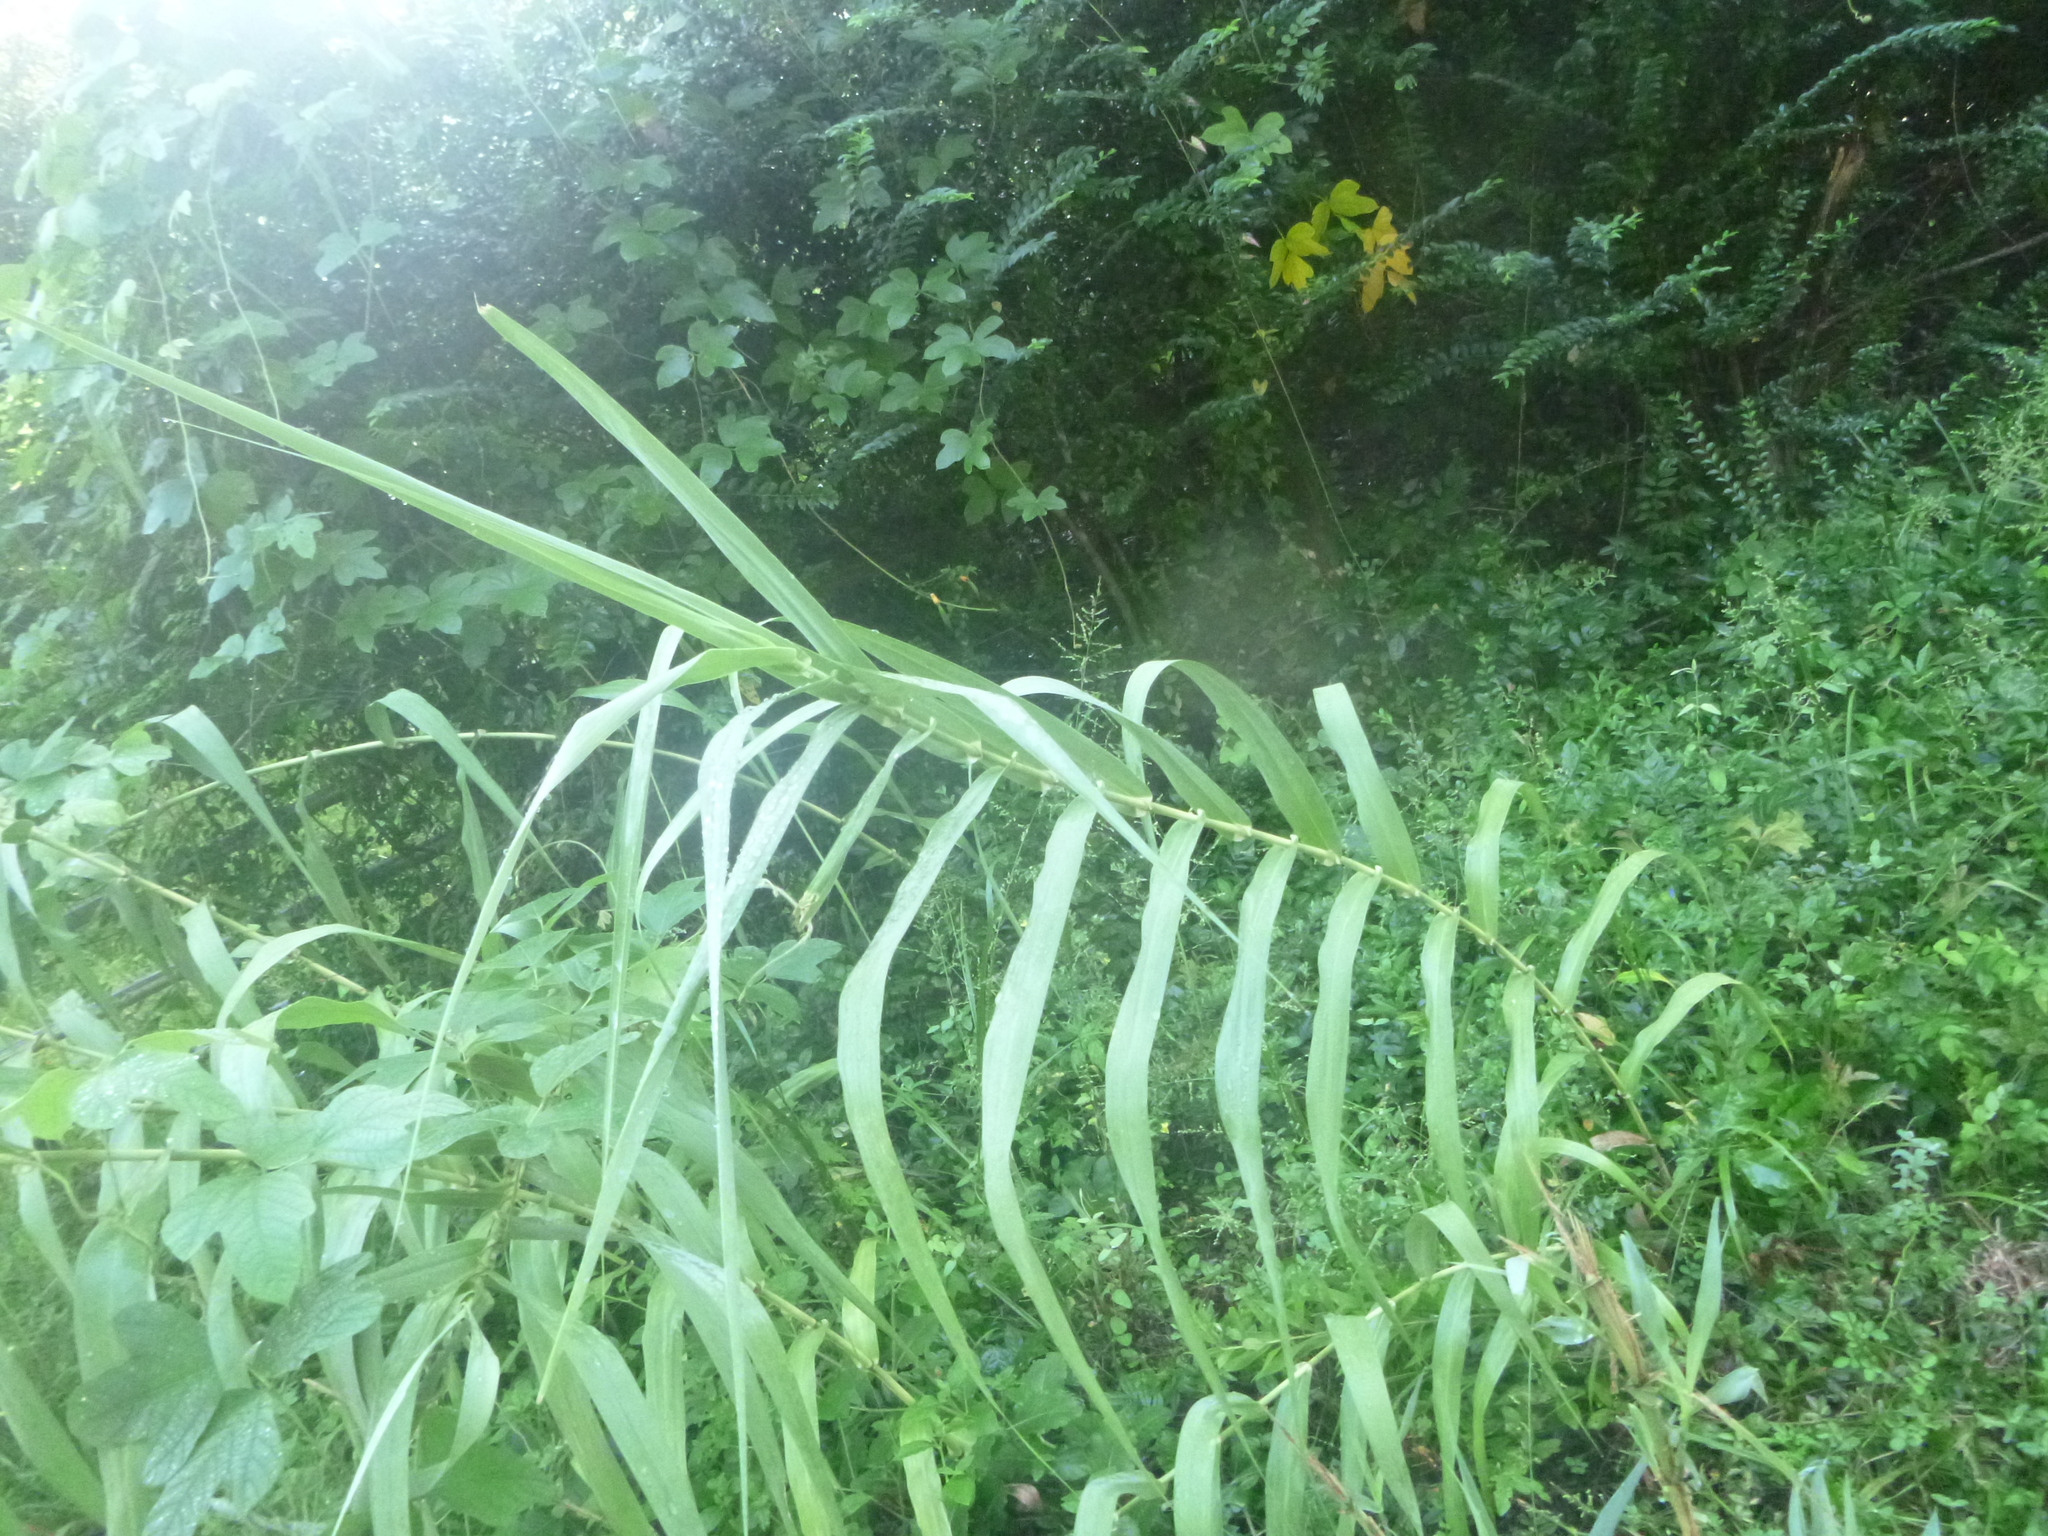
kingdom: Plantae
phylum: Tracheophyta
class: Liliopsida
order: Poales
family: Poaceae
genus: Arundo
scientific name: Arundo donax
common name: Giant reed
